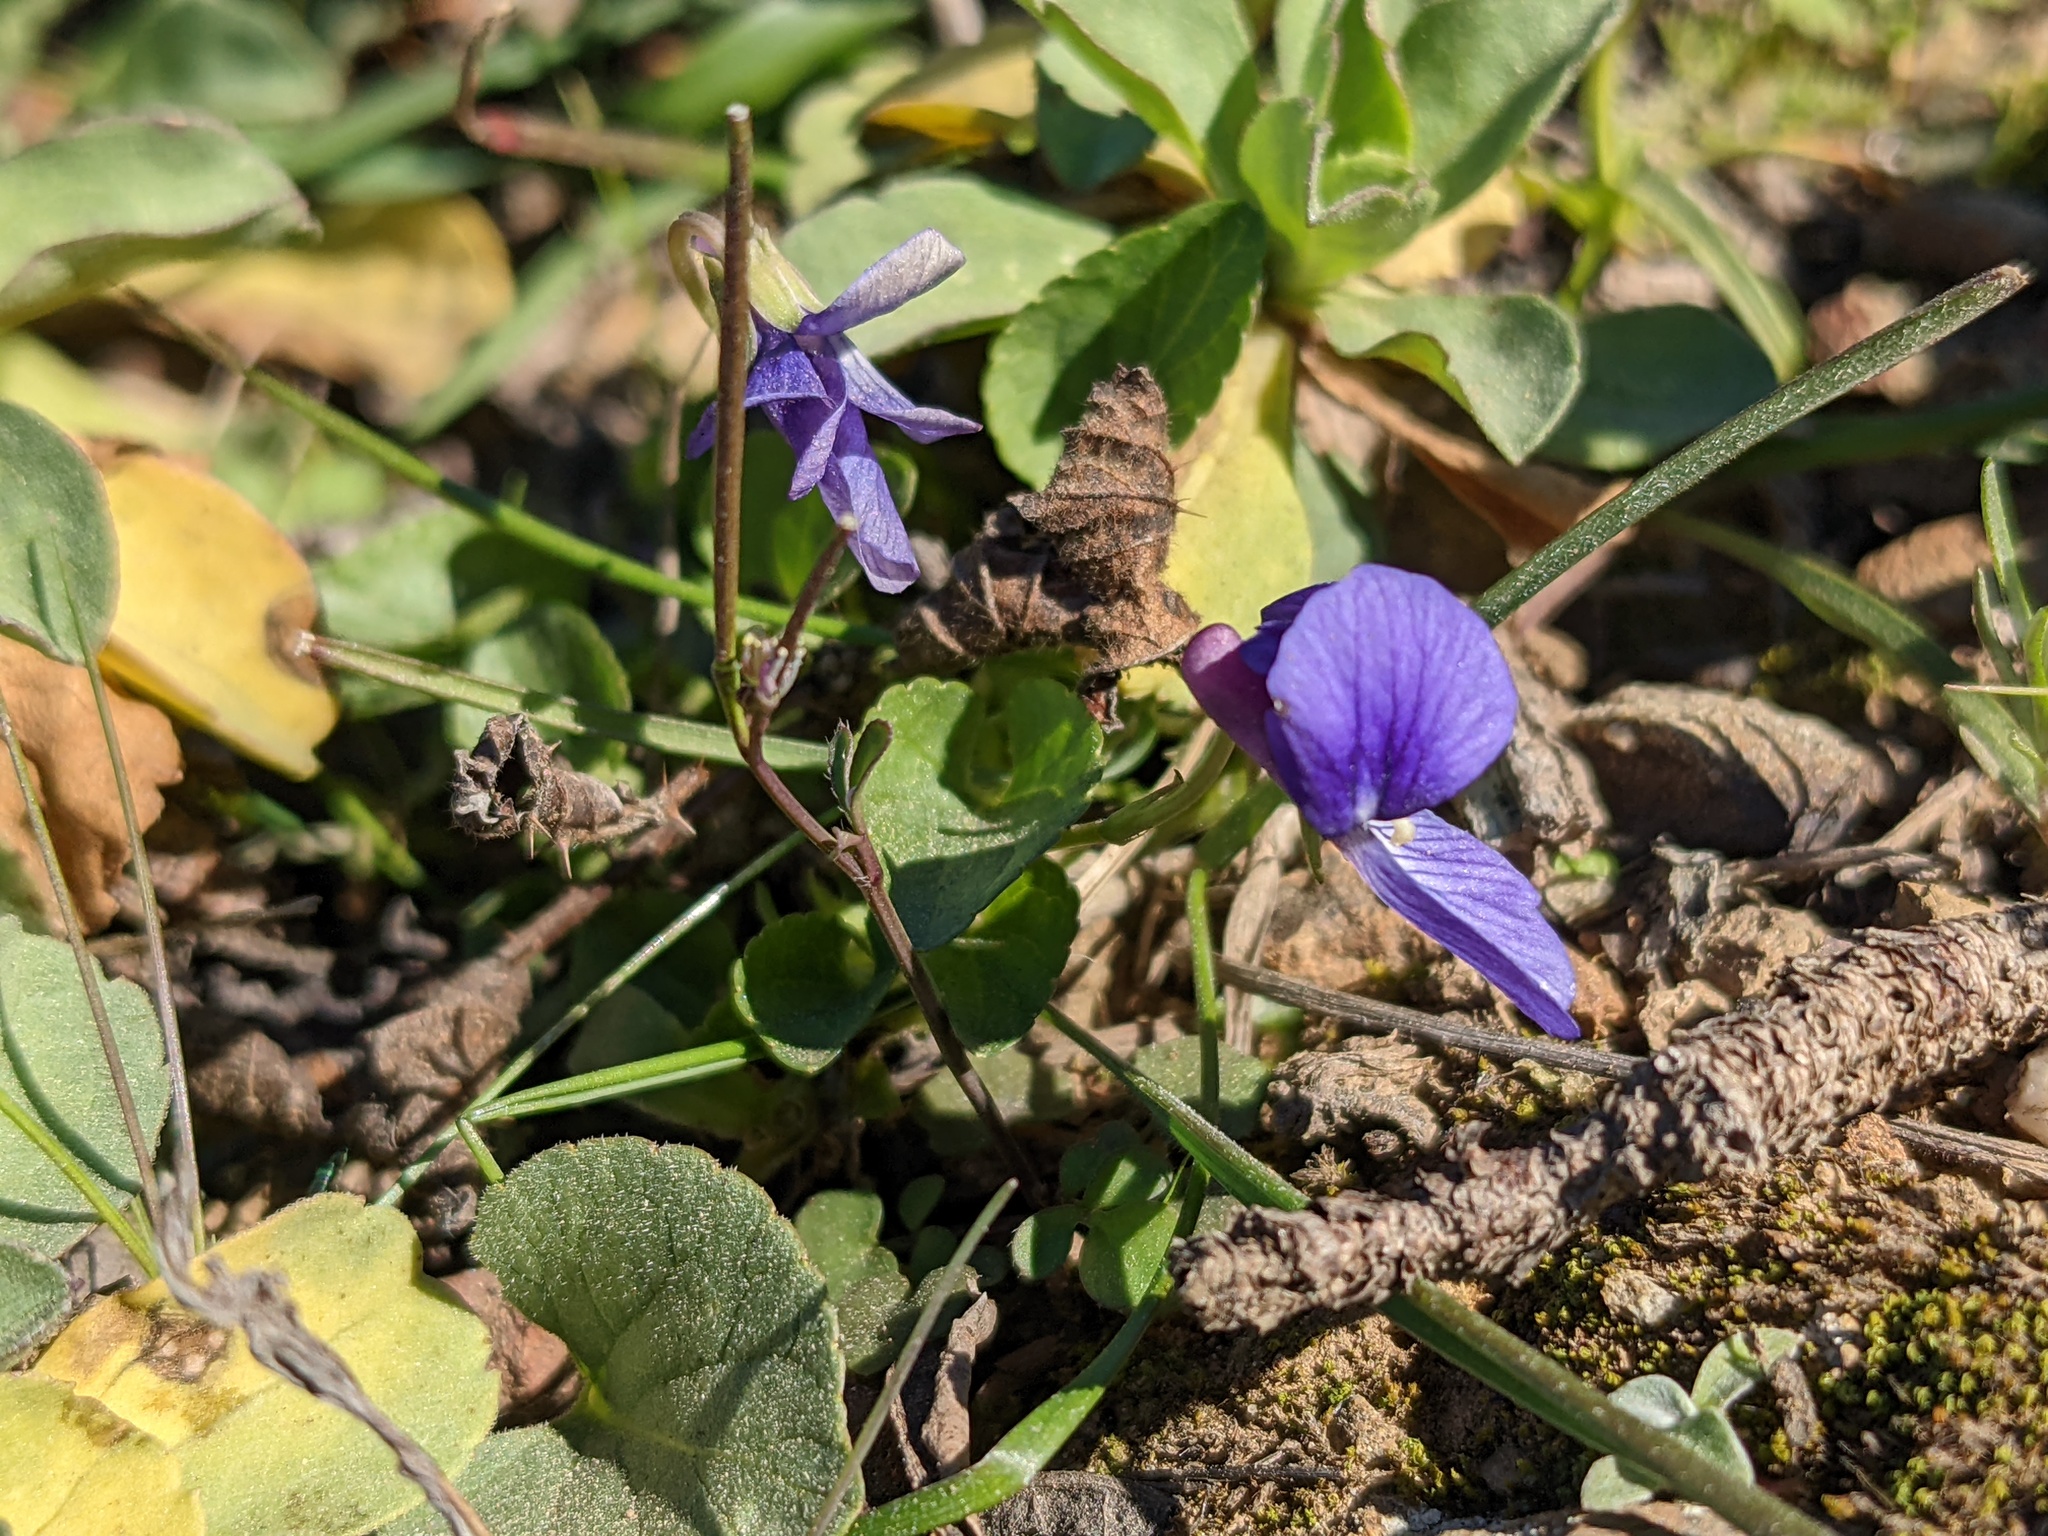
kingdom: Plantae
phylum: Tracheophyta
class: Magnoliopsida
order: Malpighiales
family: Violaceae
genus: Viola
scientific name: Viola adunca
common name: Sand violet
